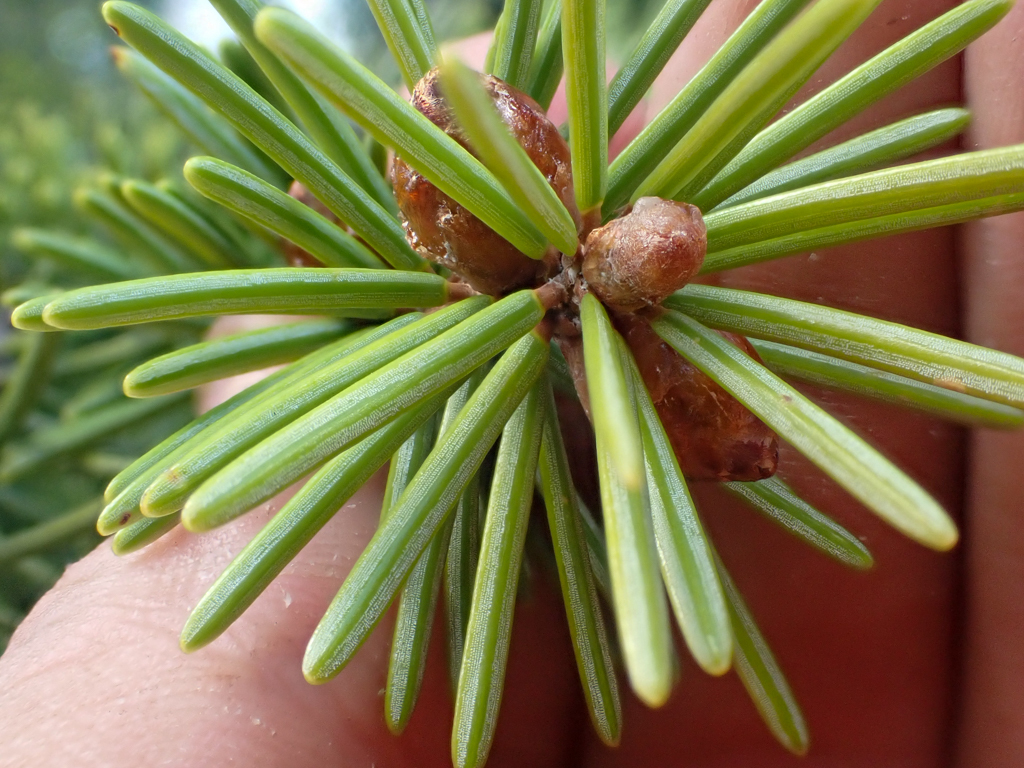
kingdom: Plantae
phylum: Tracheophyta
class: Pinopsida
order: Pinales
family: Pinaceae
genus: Picea
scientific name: Picea breweriana
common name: Brewer's spruce
